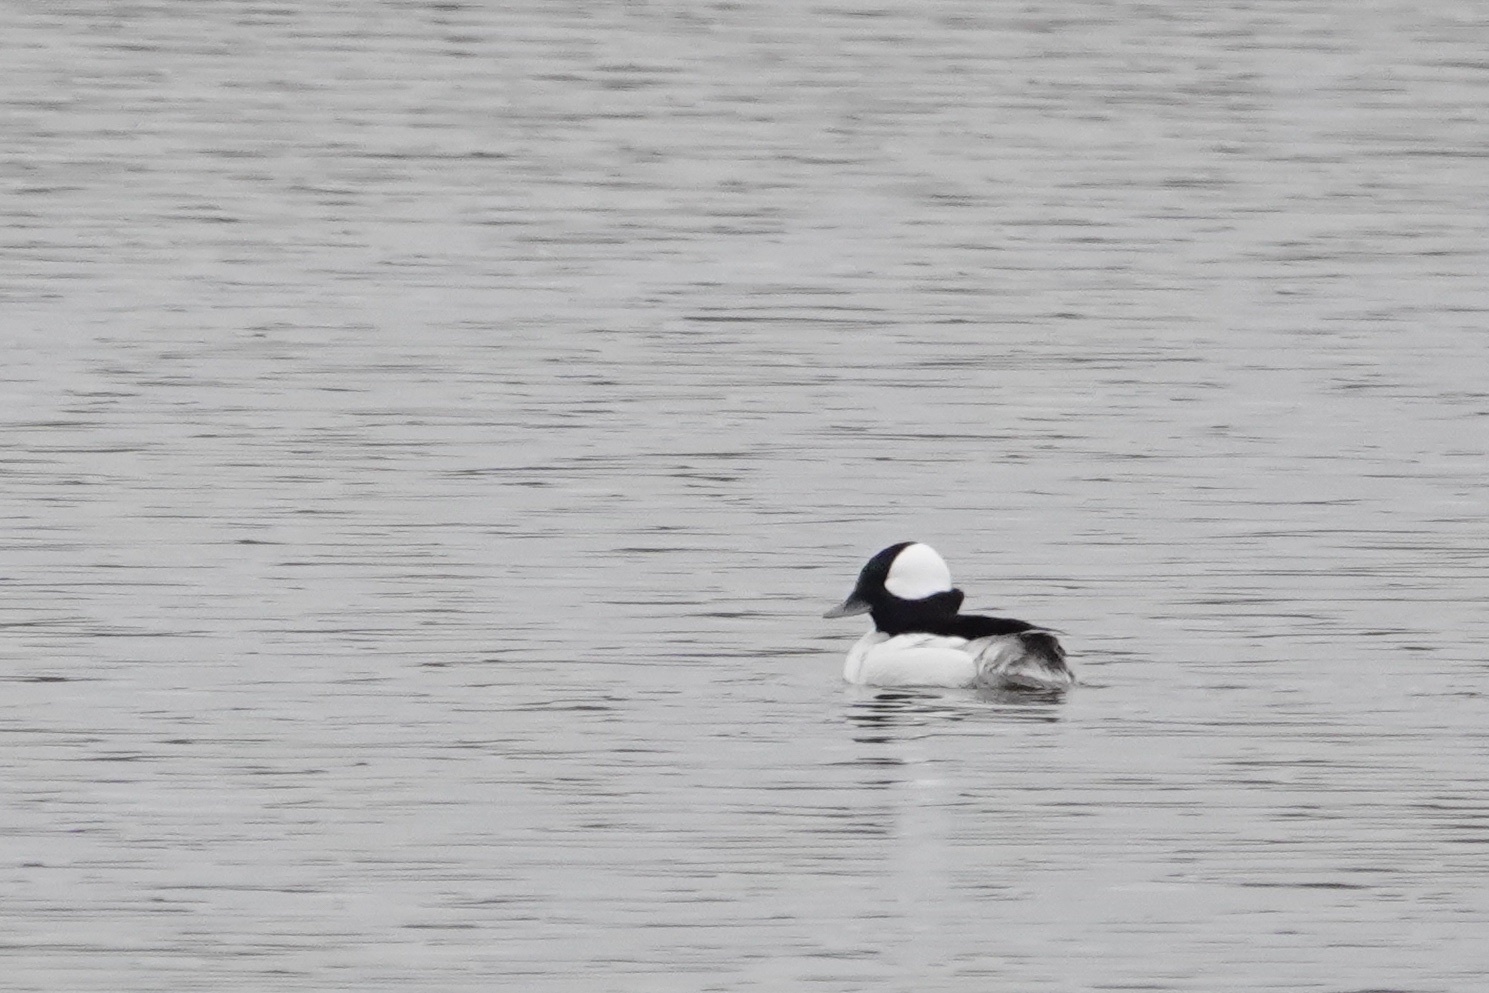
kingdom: Animalia
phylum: Chordata
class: Aves
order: Anseriformes
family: Anatidae
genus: Bucephala
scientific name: Bucephala albeola
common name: Bufflehead
